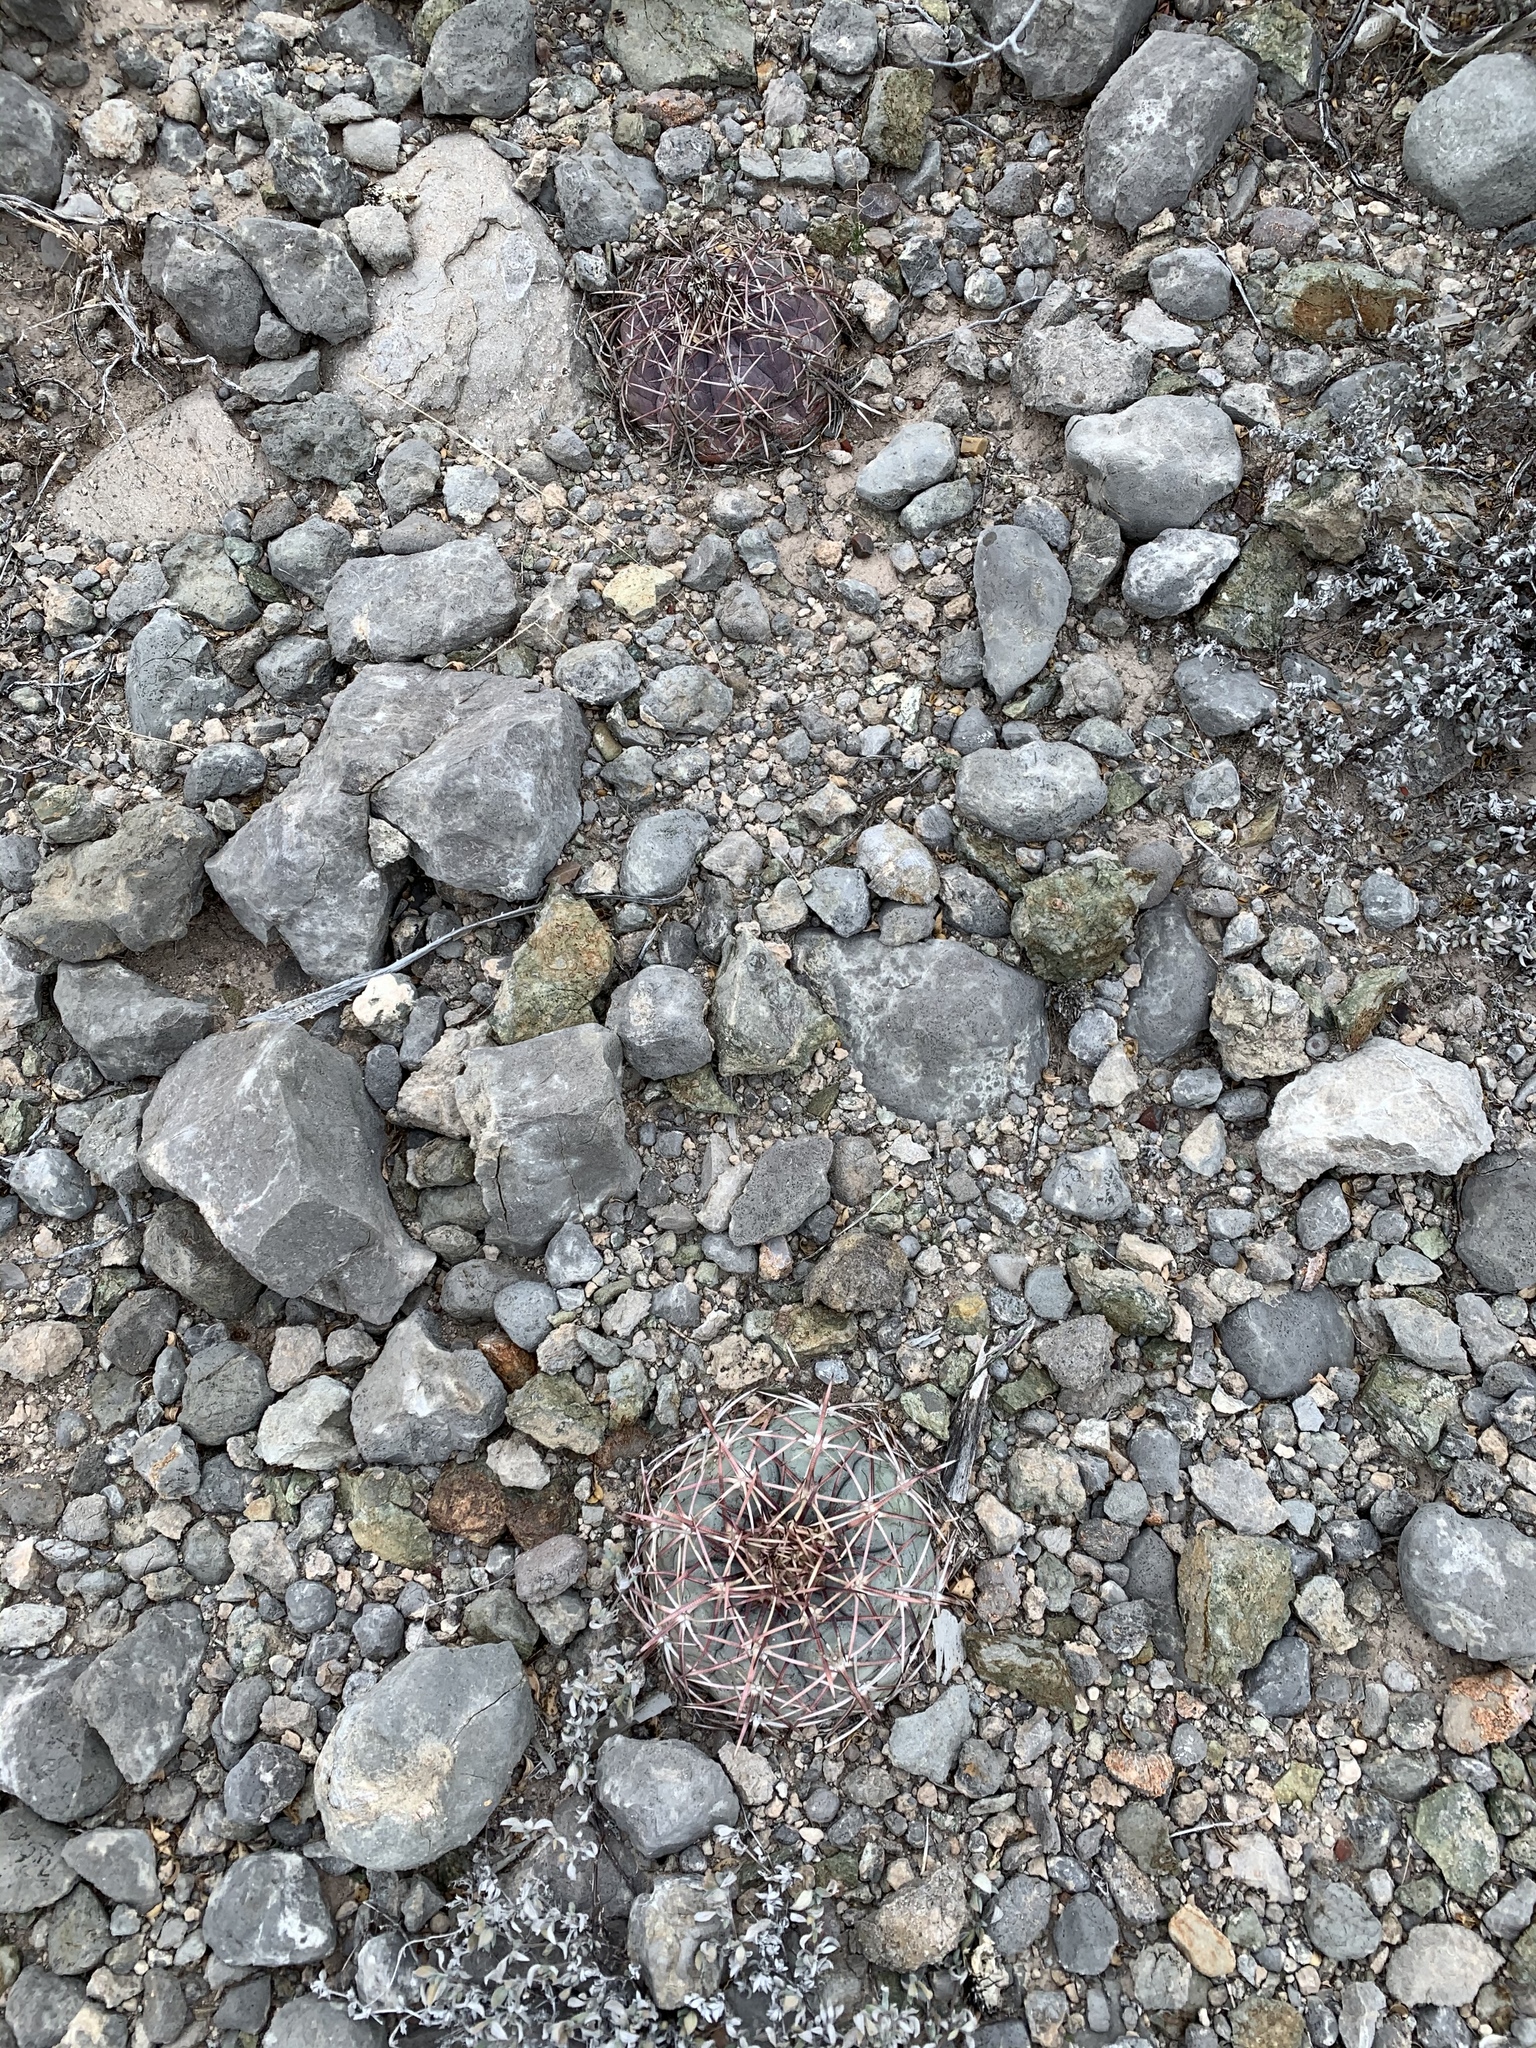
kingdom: Plantae
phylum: Tracheophyta
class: Magnoliopsida
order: Caryophyllales
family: Cactaceae
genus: Echinocactus
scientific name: Echinocactus horizonthalonius
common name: Devilshead
